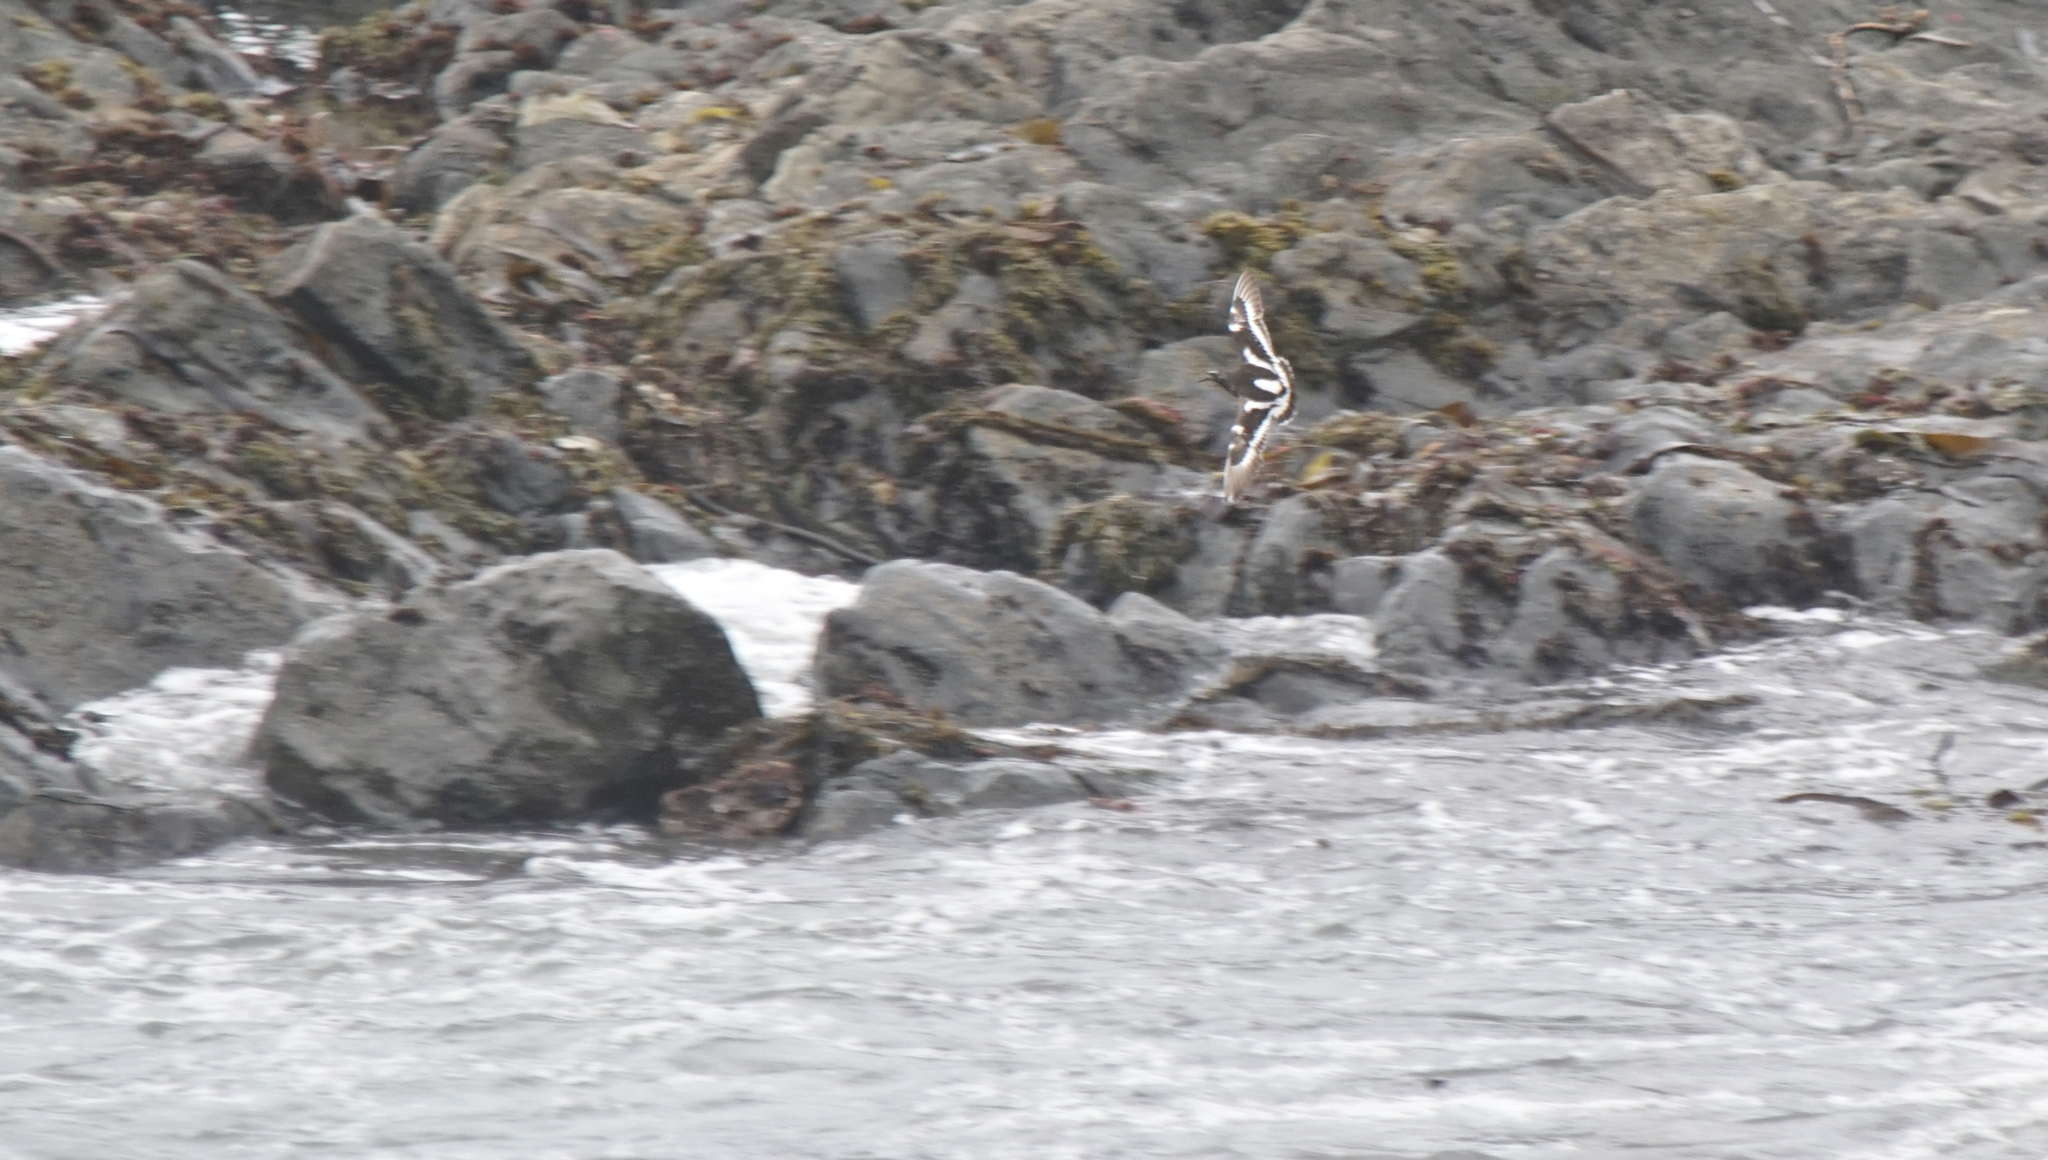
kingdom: Animalia
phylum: Chordata
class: Aves
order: Charadriiformes
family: Scolopacidae
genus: Arenaria
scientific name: Arenaria melanocephala
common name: Black turnstone
